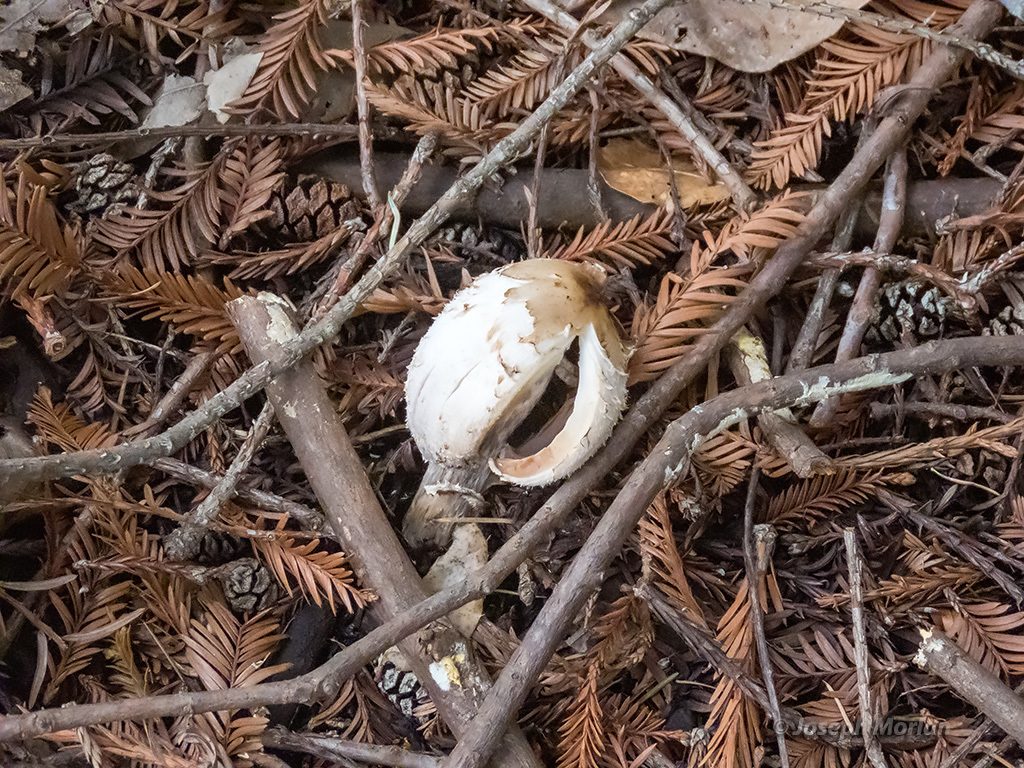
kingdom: Fungi
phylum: Basidiomycota
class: Agaricomycetes
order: Agaricales
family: Agaricaceae
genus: Coprinus
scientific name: Coprinus comatus
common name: Lawyer's wig
